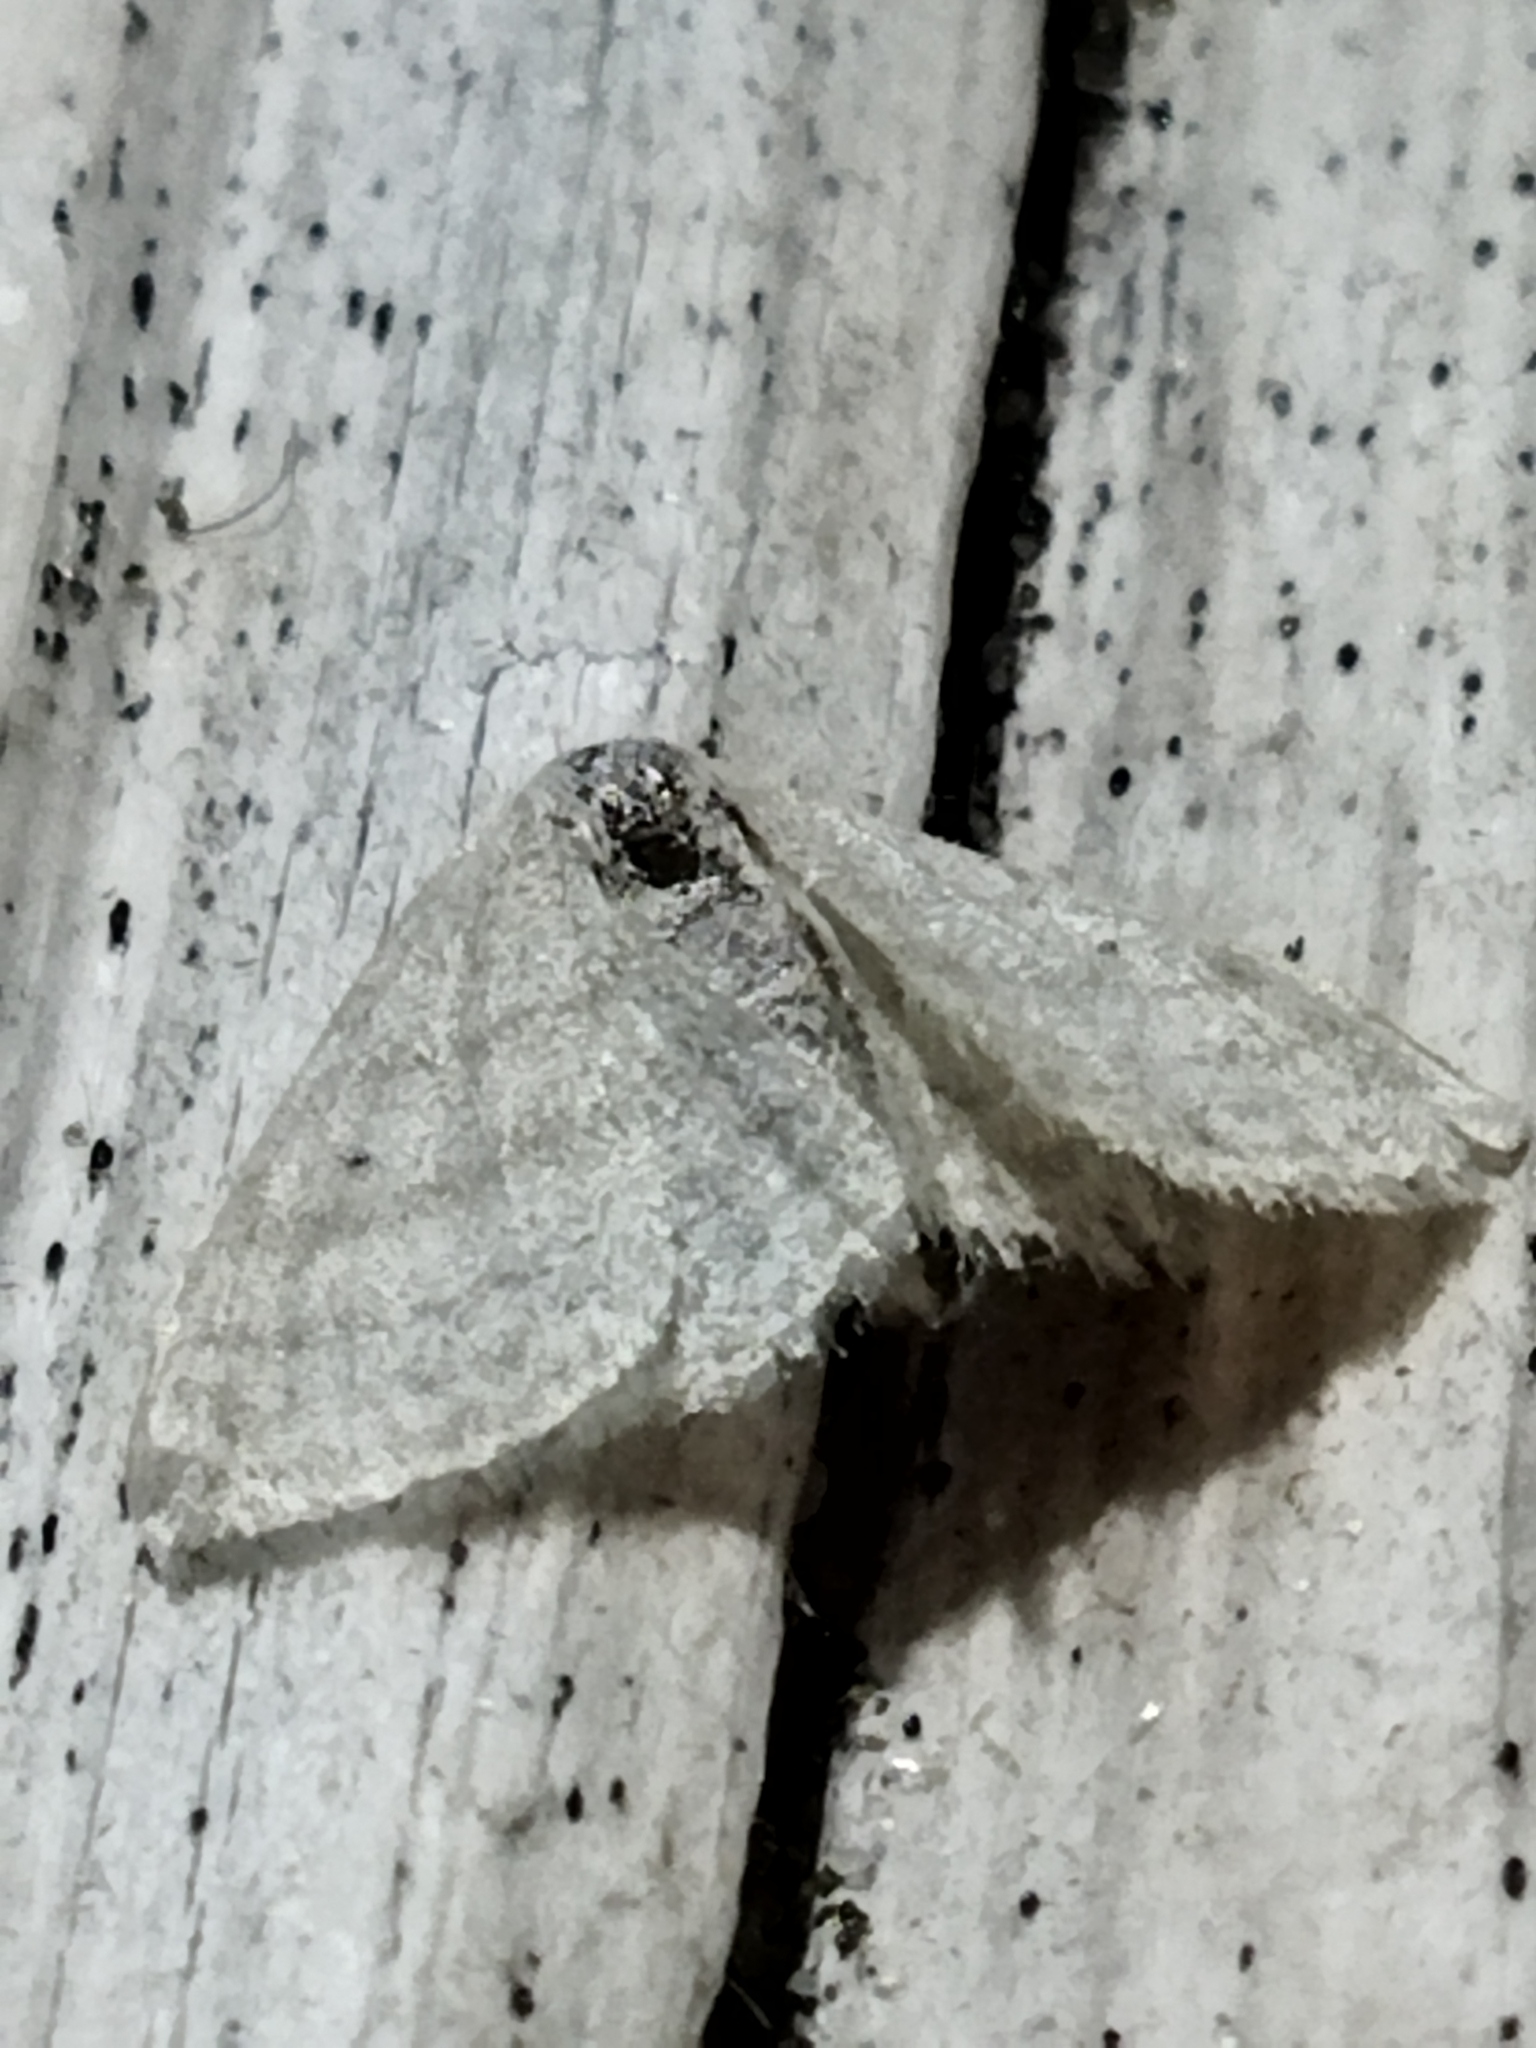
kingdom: Animalia
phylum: Arthropoda
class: Insecta
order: Lepidoptera
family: Geometridae
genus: Idaea
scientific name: Idaea subsericeata
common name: Satin wave
